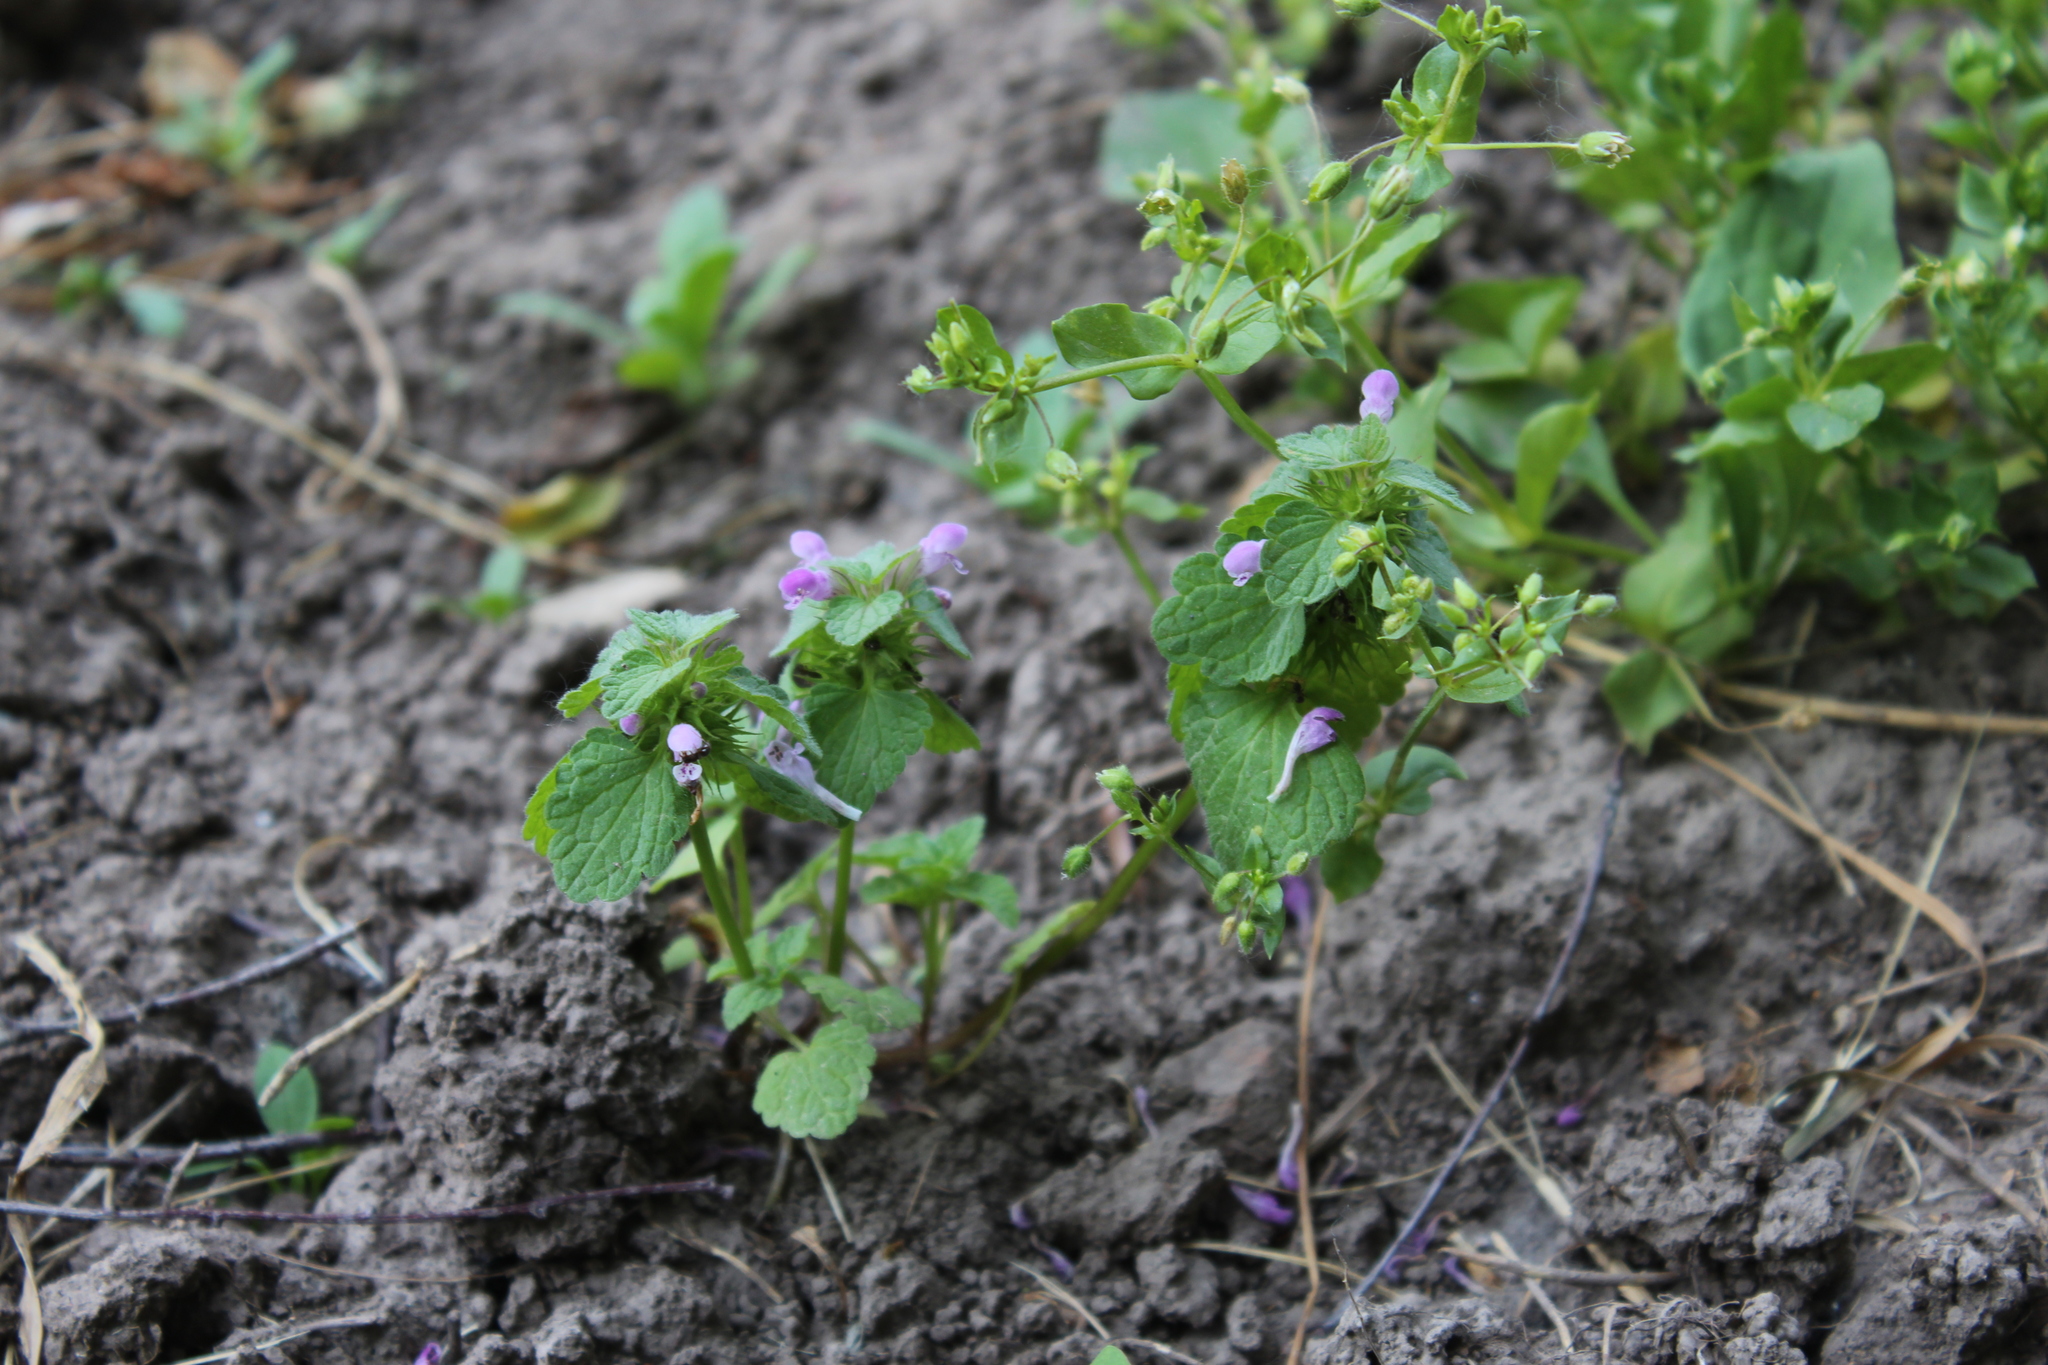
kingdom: Plantae
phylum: Tracheophyta
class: Magnoliopsida
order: Lamiales
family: Lamiaceae
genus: Lamium
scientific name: Lamium purpureum
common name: Red dead-nettle
